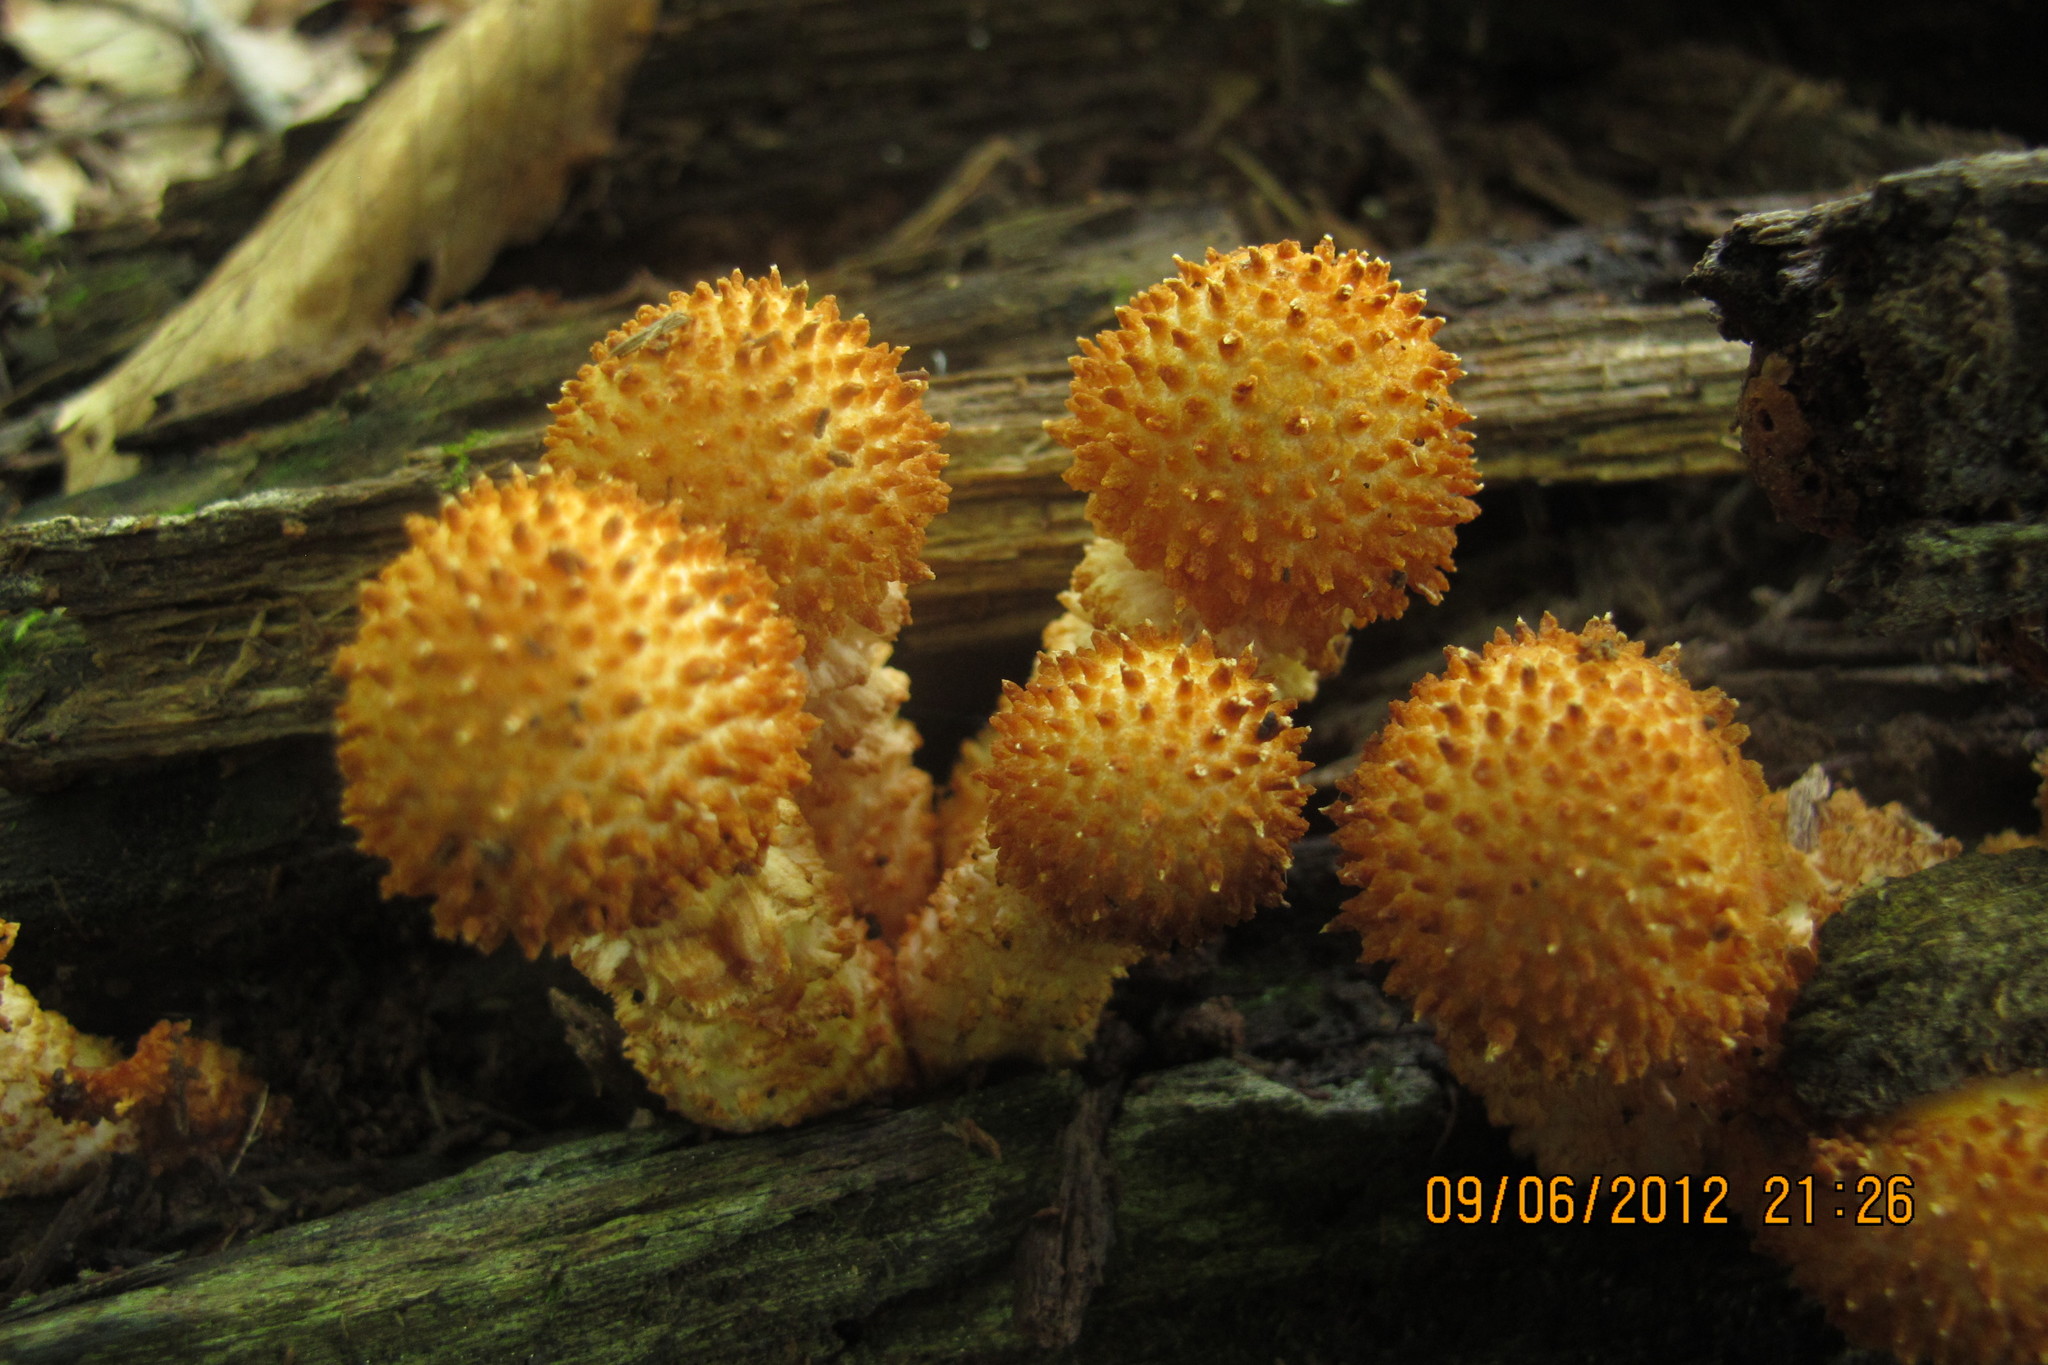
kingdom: Fungi
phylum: Basidiomycota
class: Agaricomycetes
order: Agaricales
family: Strophariaceae
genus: Pholiota
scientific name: Pholiota squarrosoides
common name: Sharp-scaly pholiota
